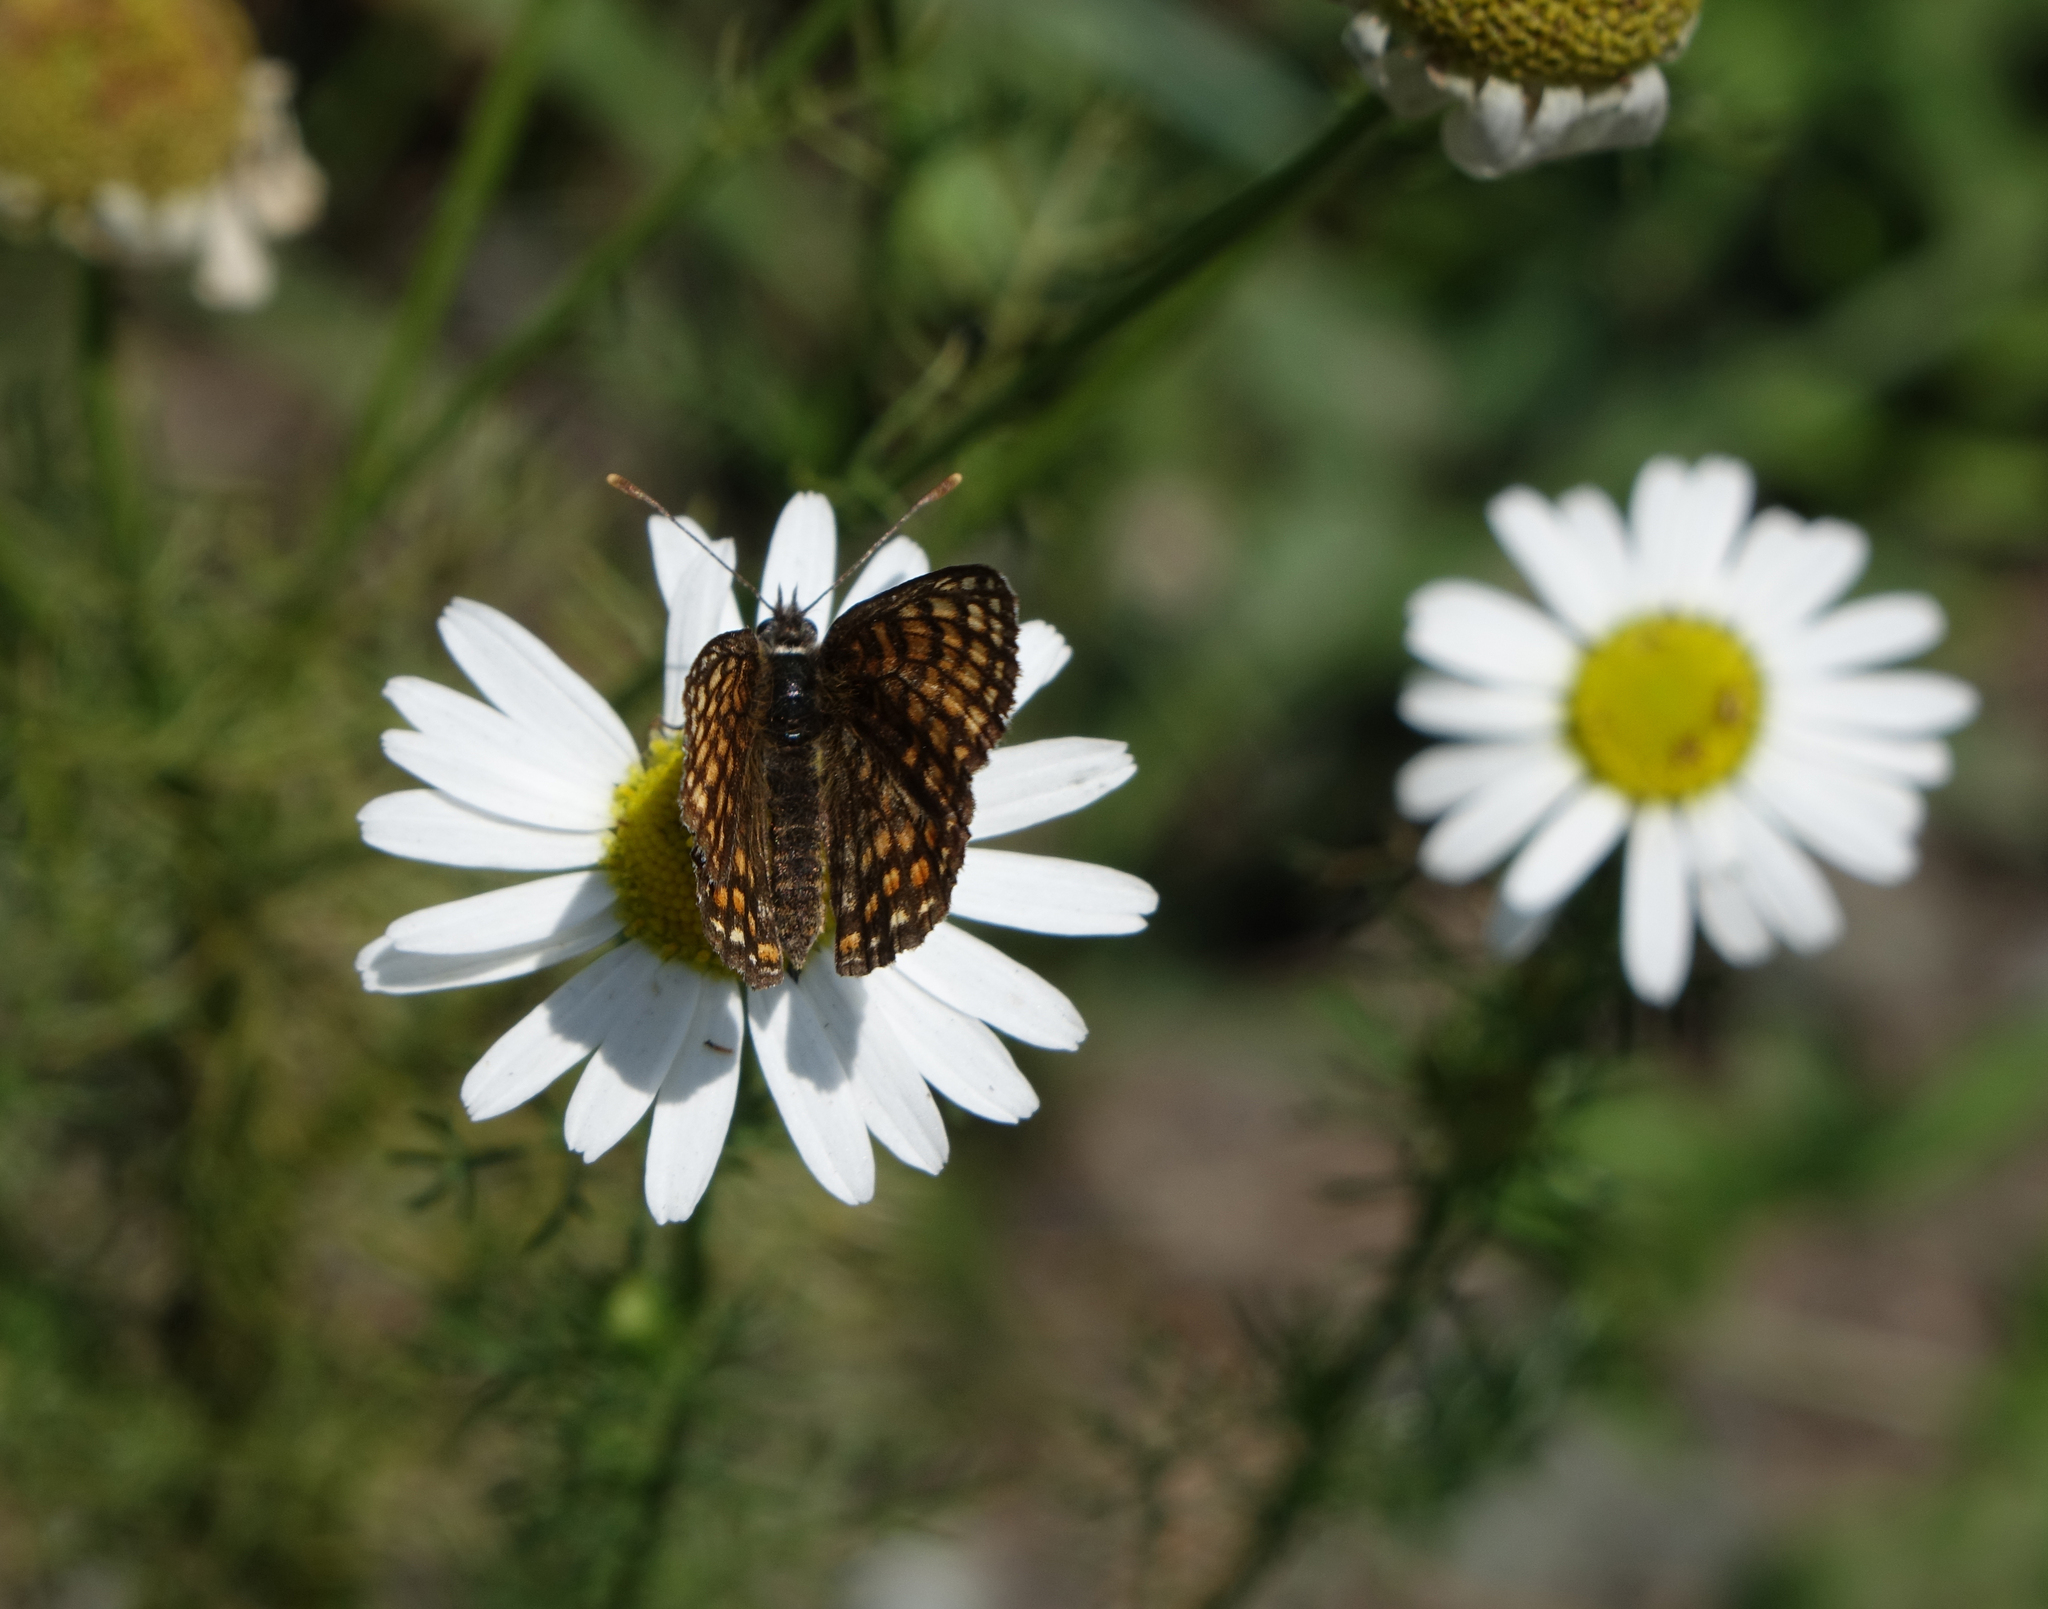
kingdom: Animalia
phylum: Arthropoda
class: Insecta
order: Lepidoptera
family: Nymphalidae
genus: Melitaea
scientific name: Melitaea
